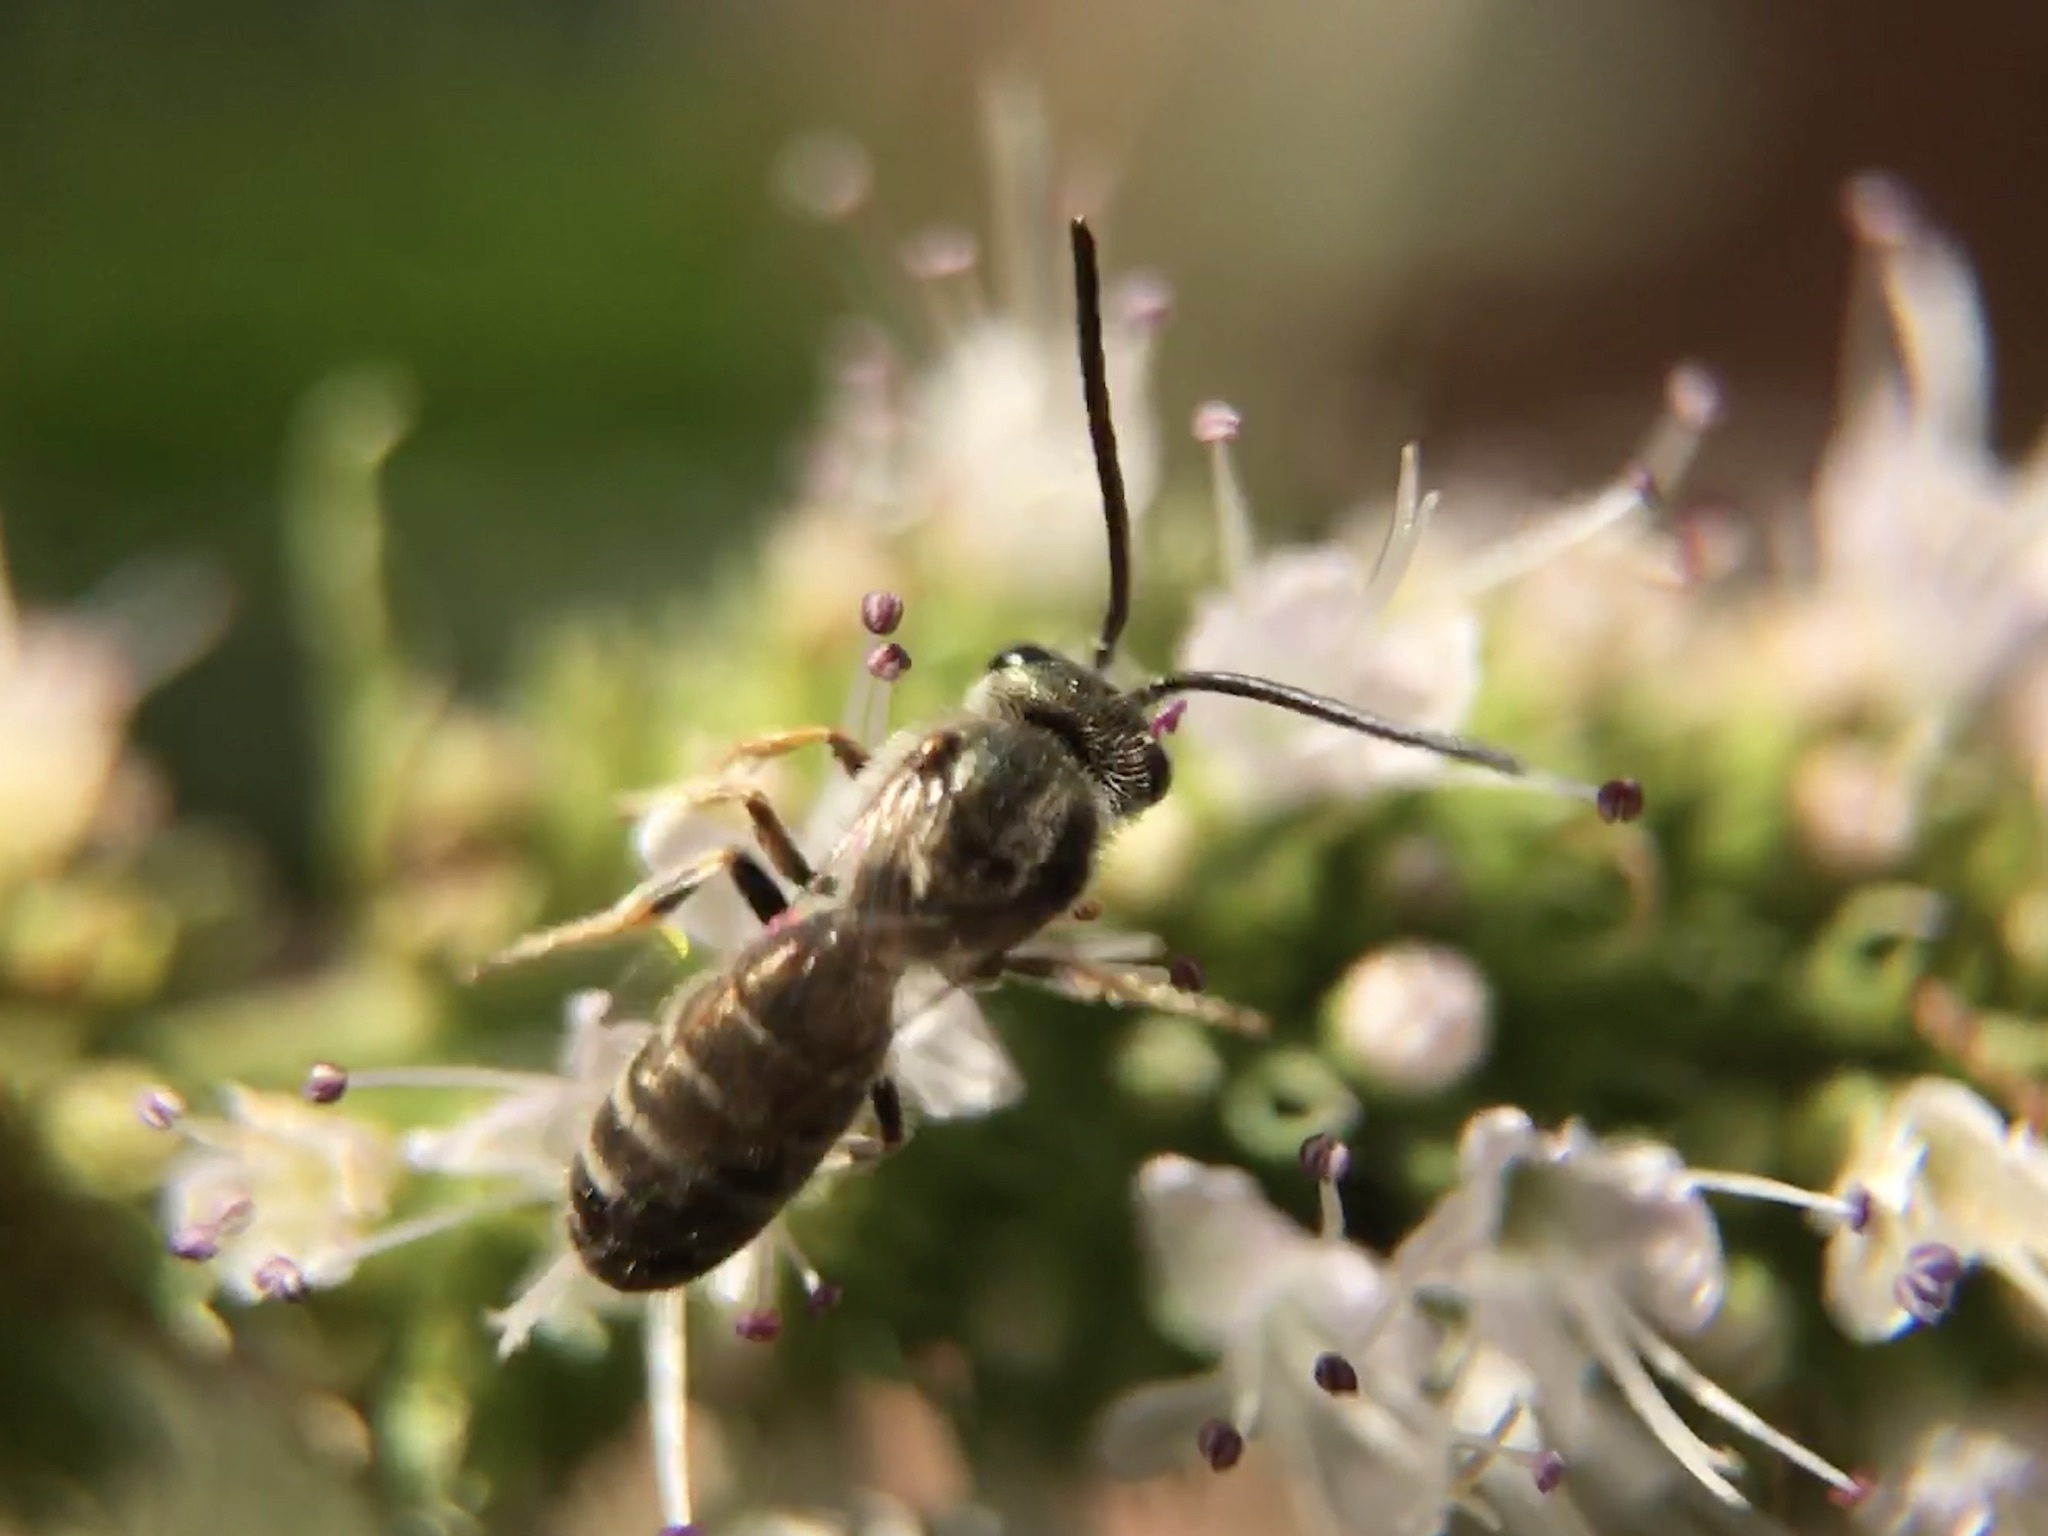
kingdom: Animalia
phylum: Arthropoda
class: Insecta
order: Hymenoptera
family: Halictidae
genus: Halictus
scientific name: Halictus tripartitus
